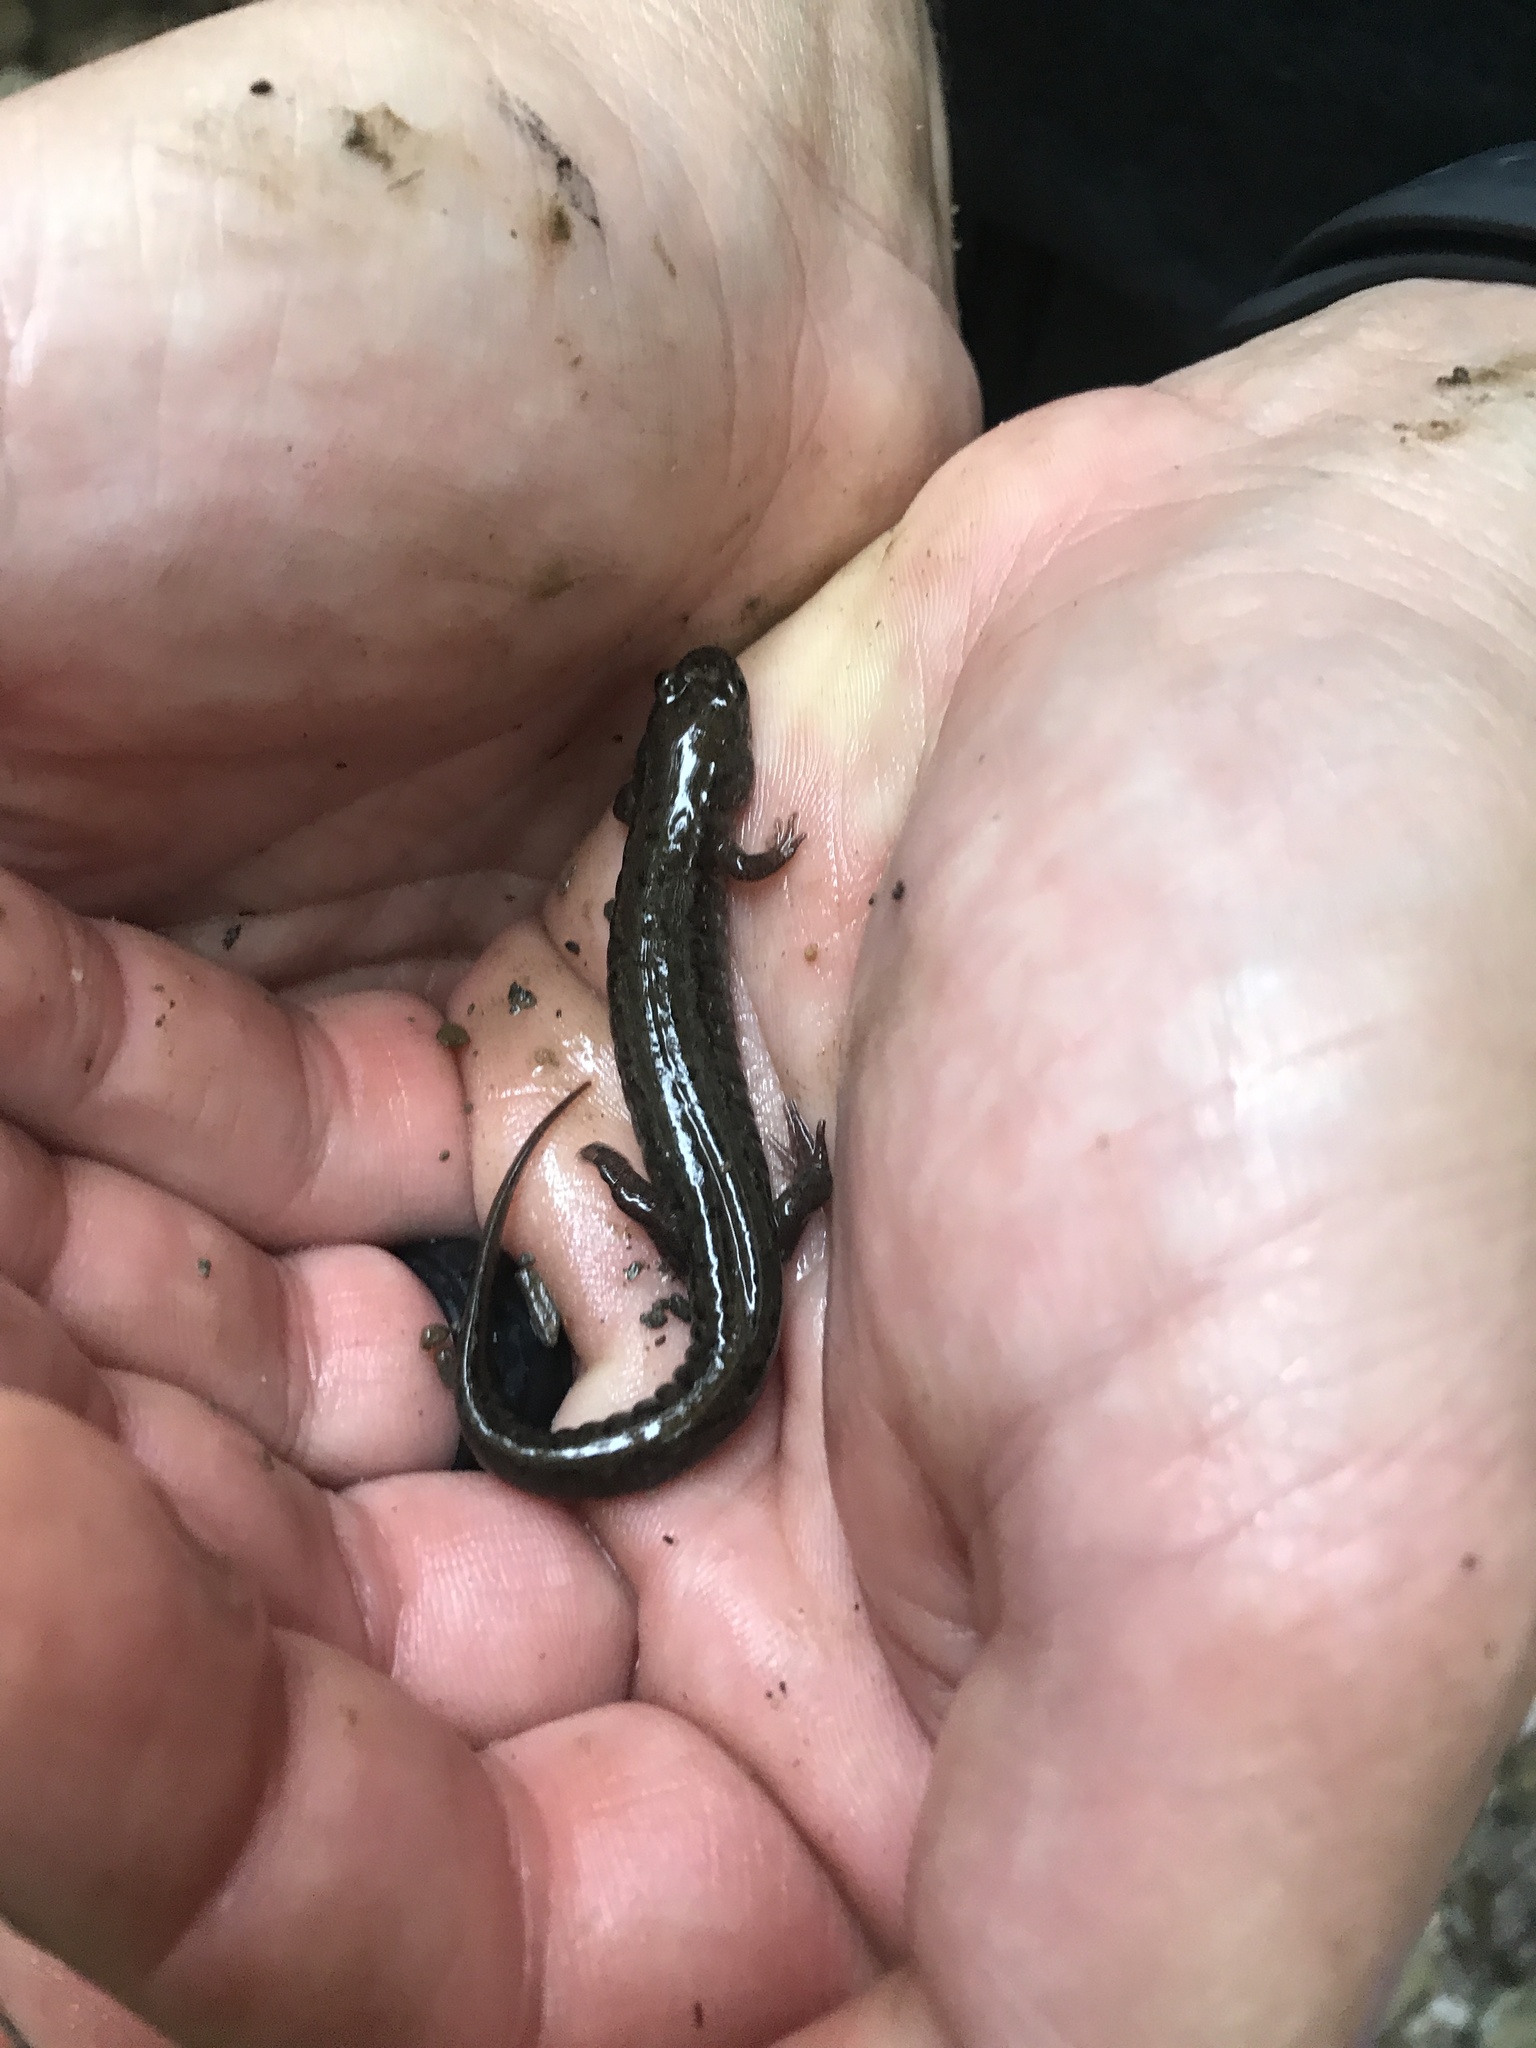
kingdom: Animalia
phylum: Chordata
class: Amphibia
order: Caudata
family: Plethodontidae
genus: Desmognathus
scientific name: Desmognathus fuscus
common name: Northern dusky salamander
